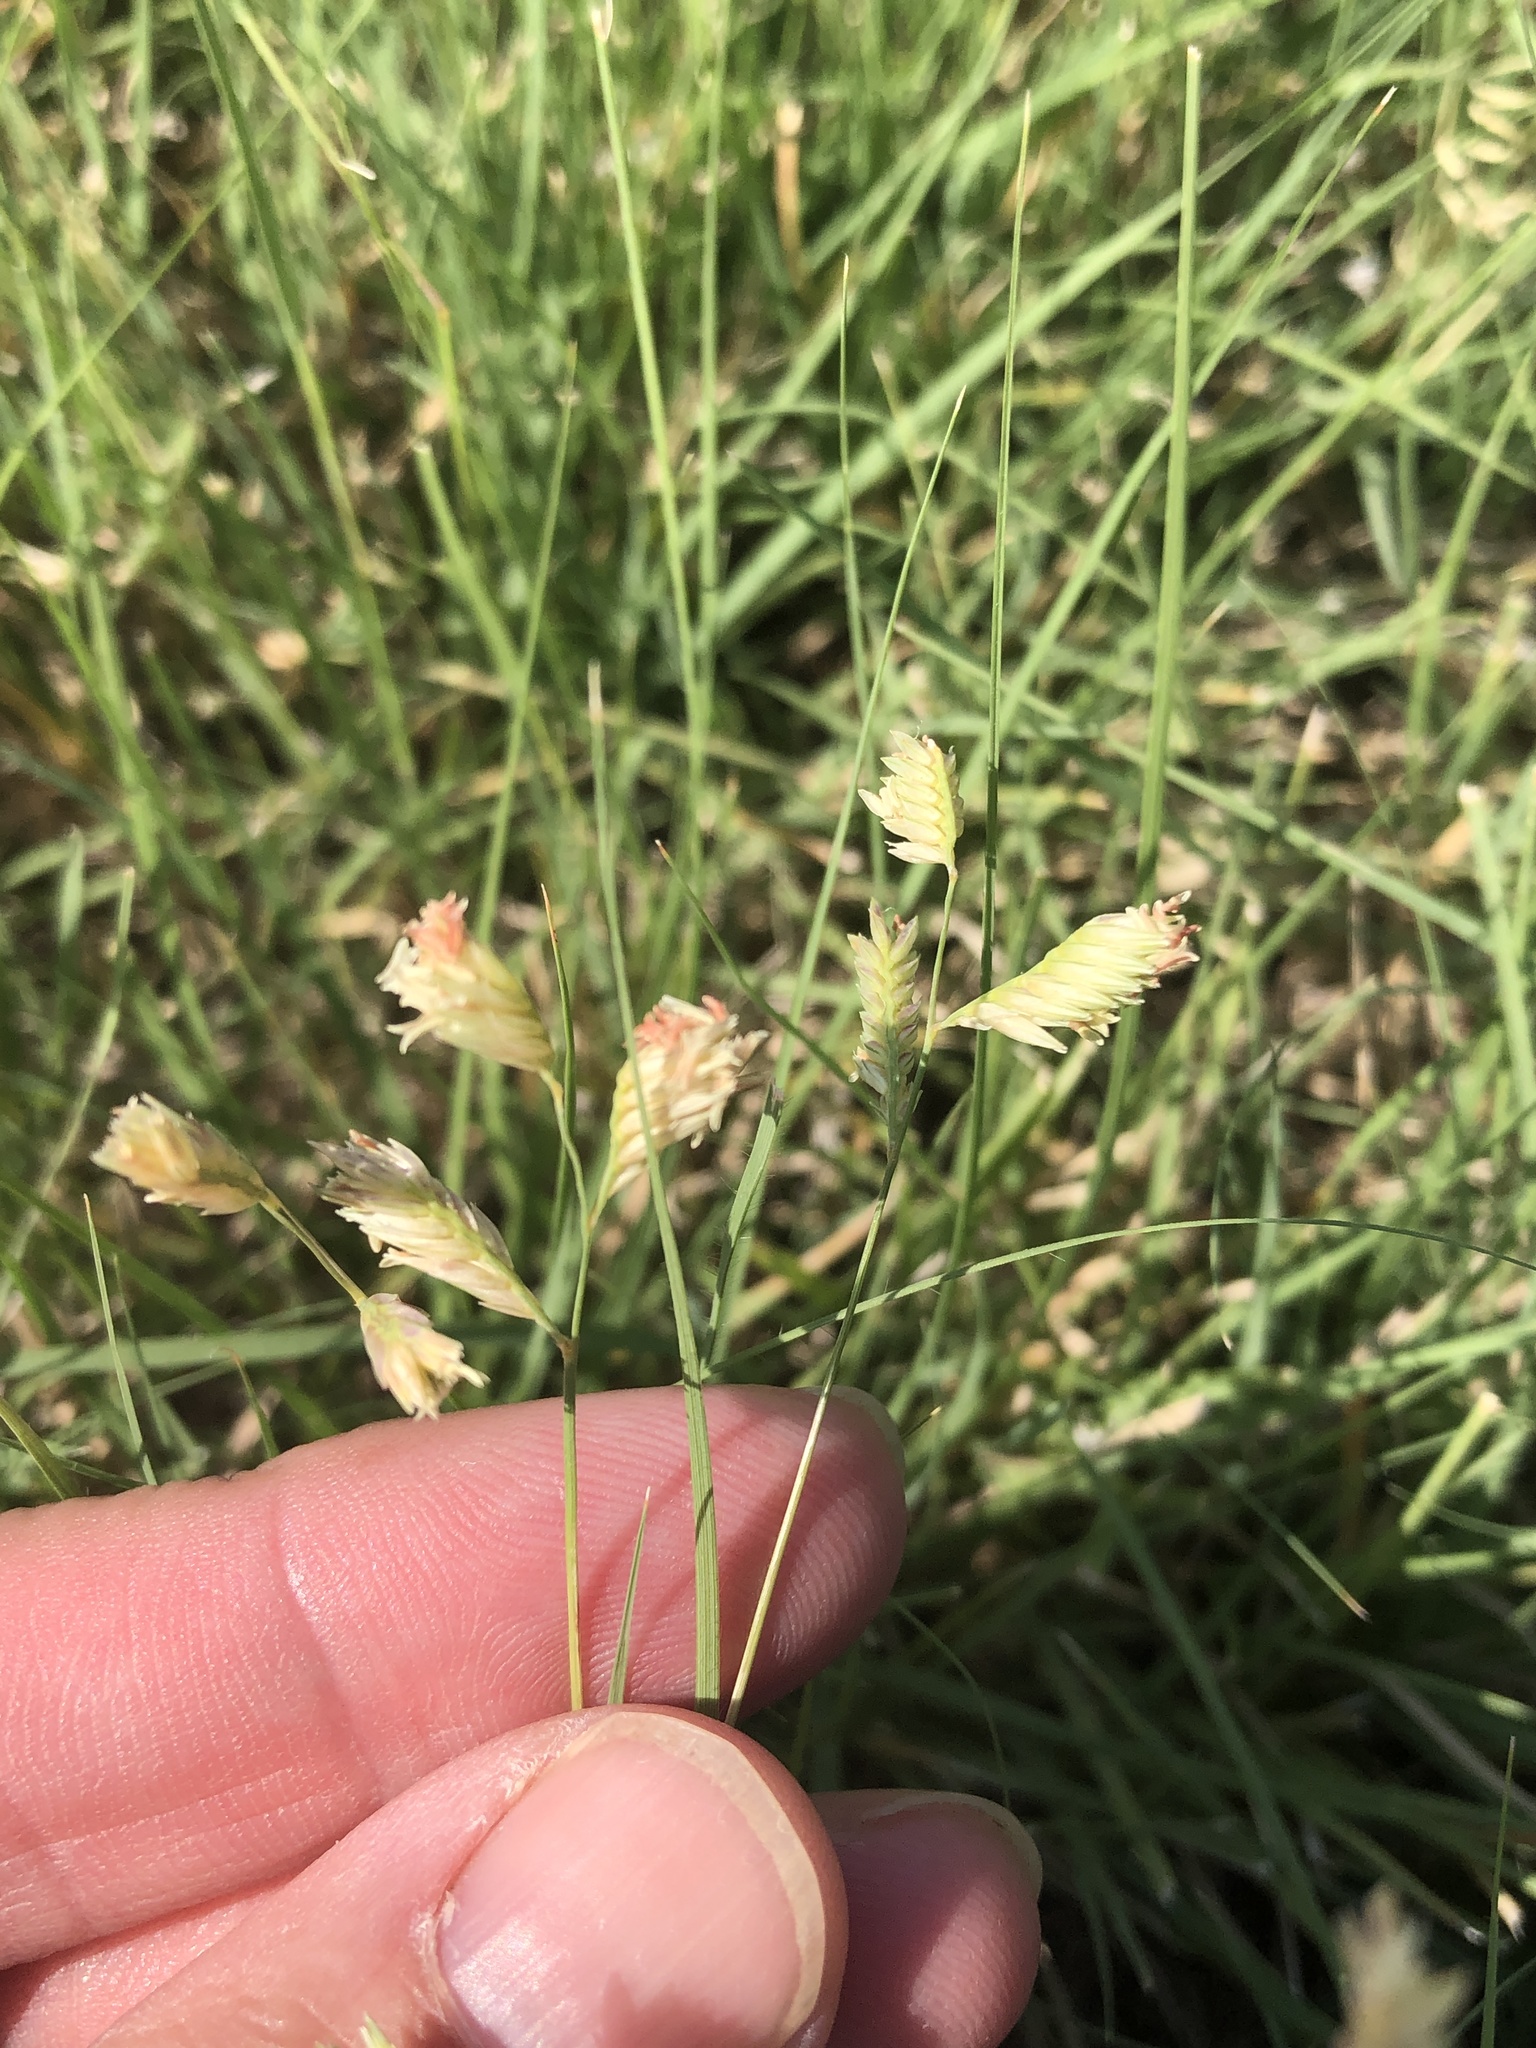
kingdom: Plantae
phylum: Tracheophyta
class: Liliopsida
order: Poales
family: Poaceae
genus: Bouteloua
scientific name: Bouteloua dactyloides
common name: Buffalo grass
